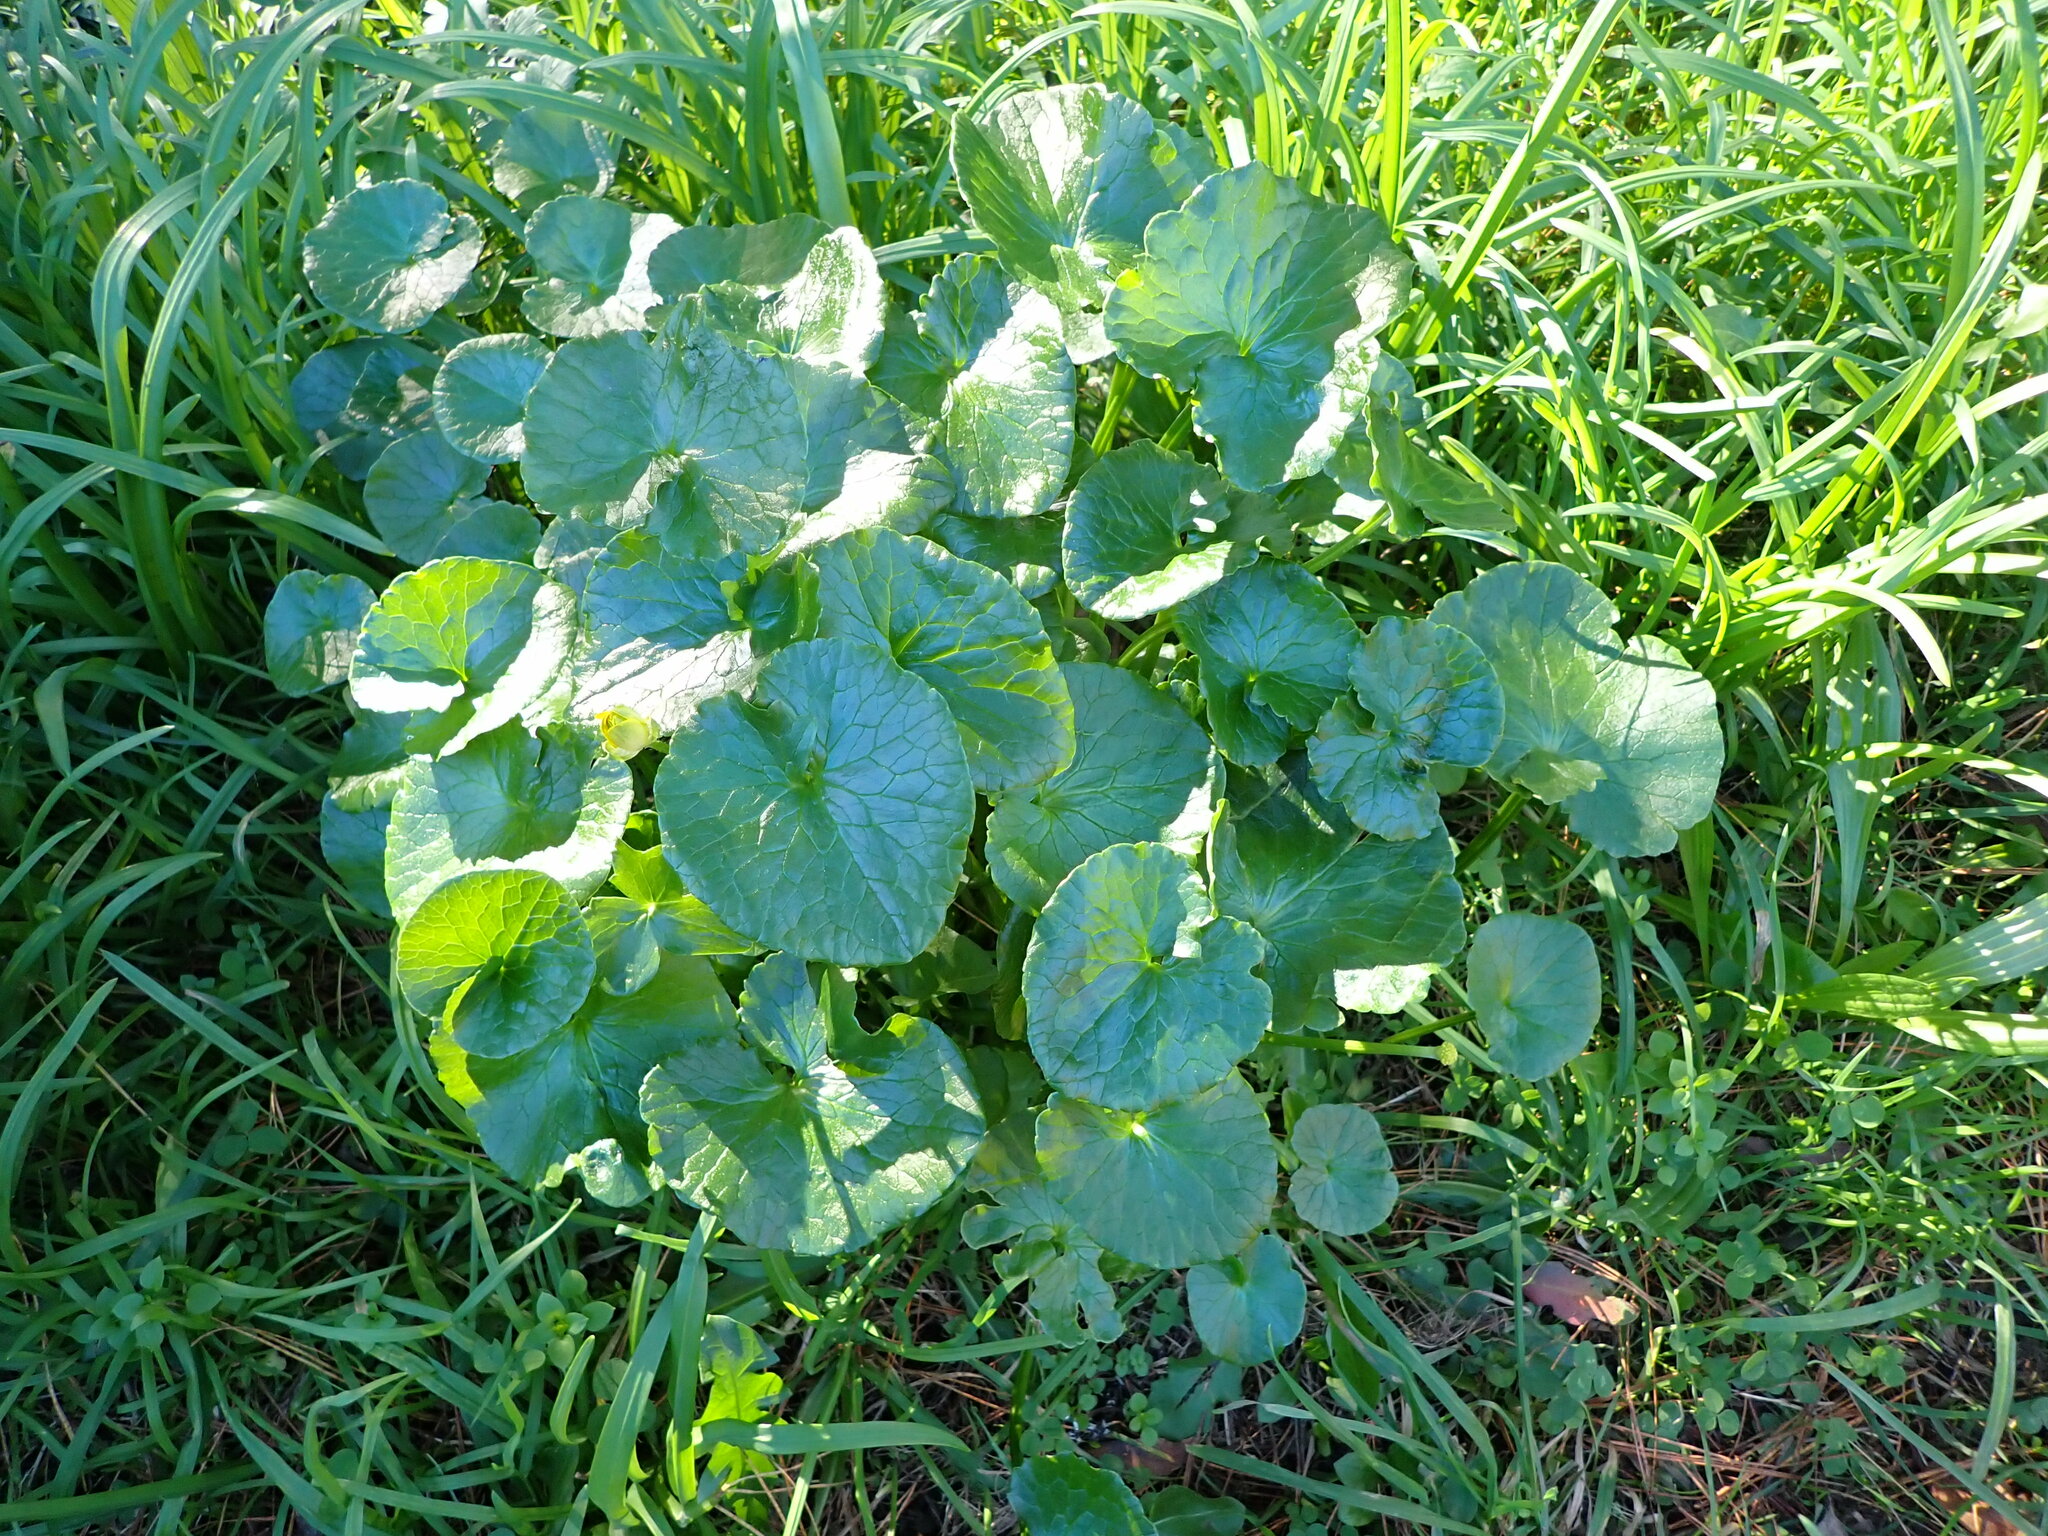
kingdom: Plantae
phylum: Tracheophyta
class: Magnoliopsida
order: Ranunculales
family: Ranunculaceae
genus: Ficaria
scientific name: Ficaria verna
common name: Lesser celandine
